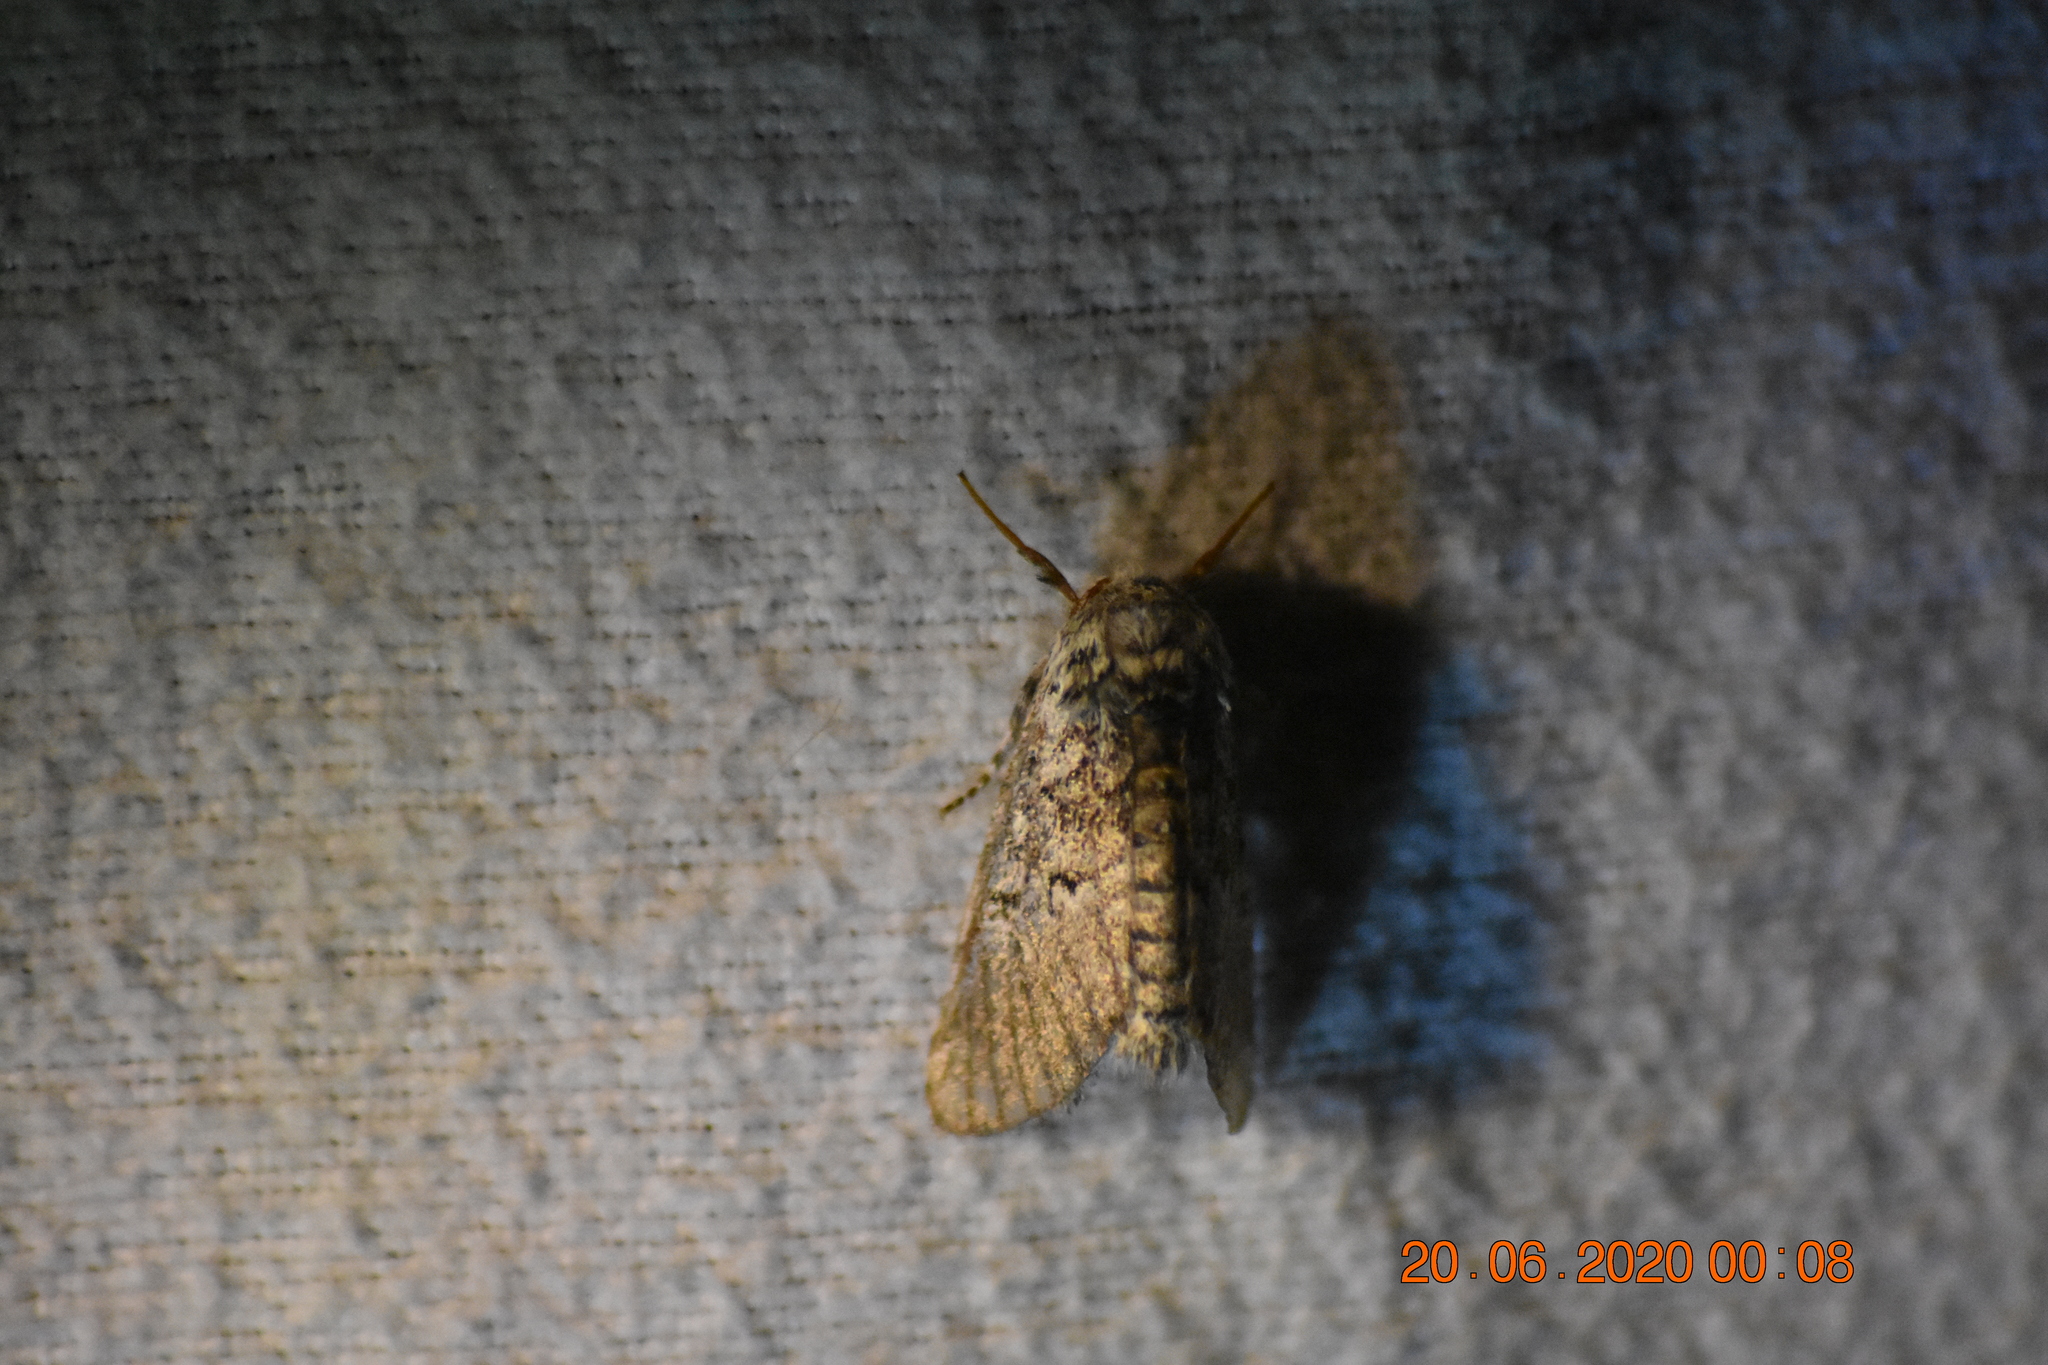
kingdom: Animalia
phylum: Arthropoda
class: Insecta
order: Lepidoptera
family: Noctuidae
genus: Colocasia
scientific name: Colocasia propinquilinea
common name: Close-banded demas
